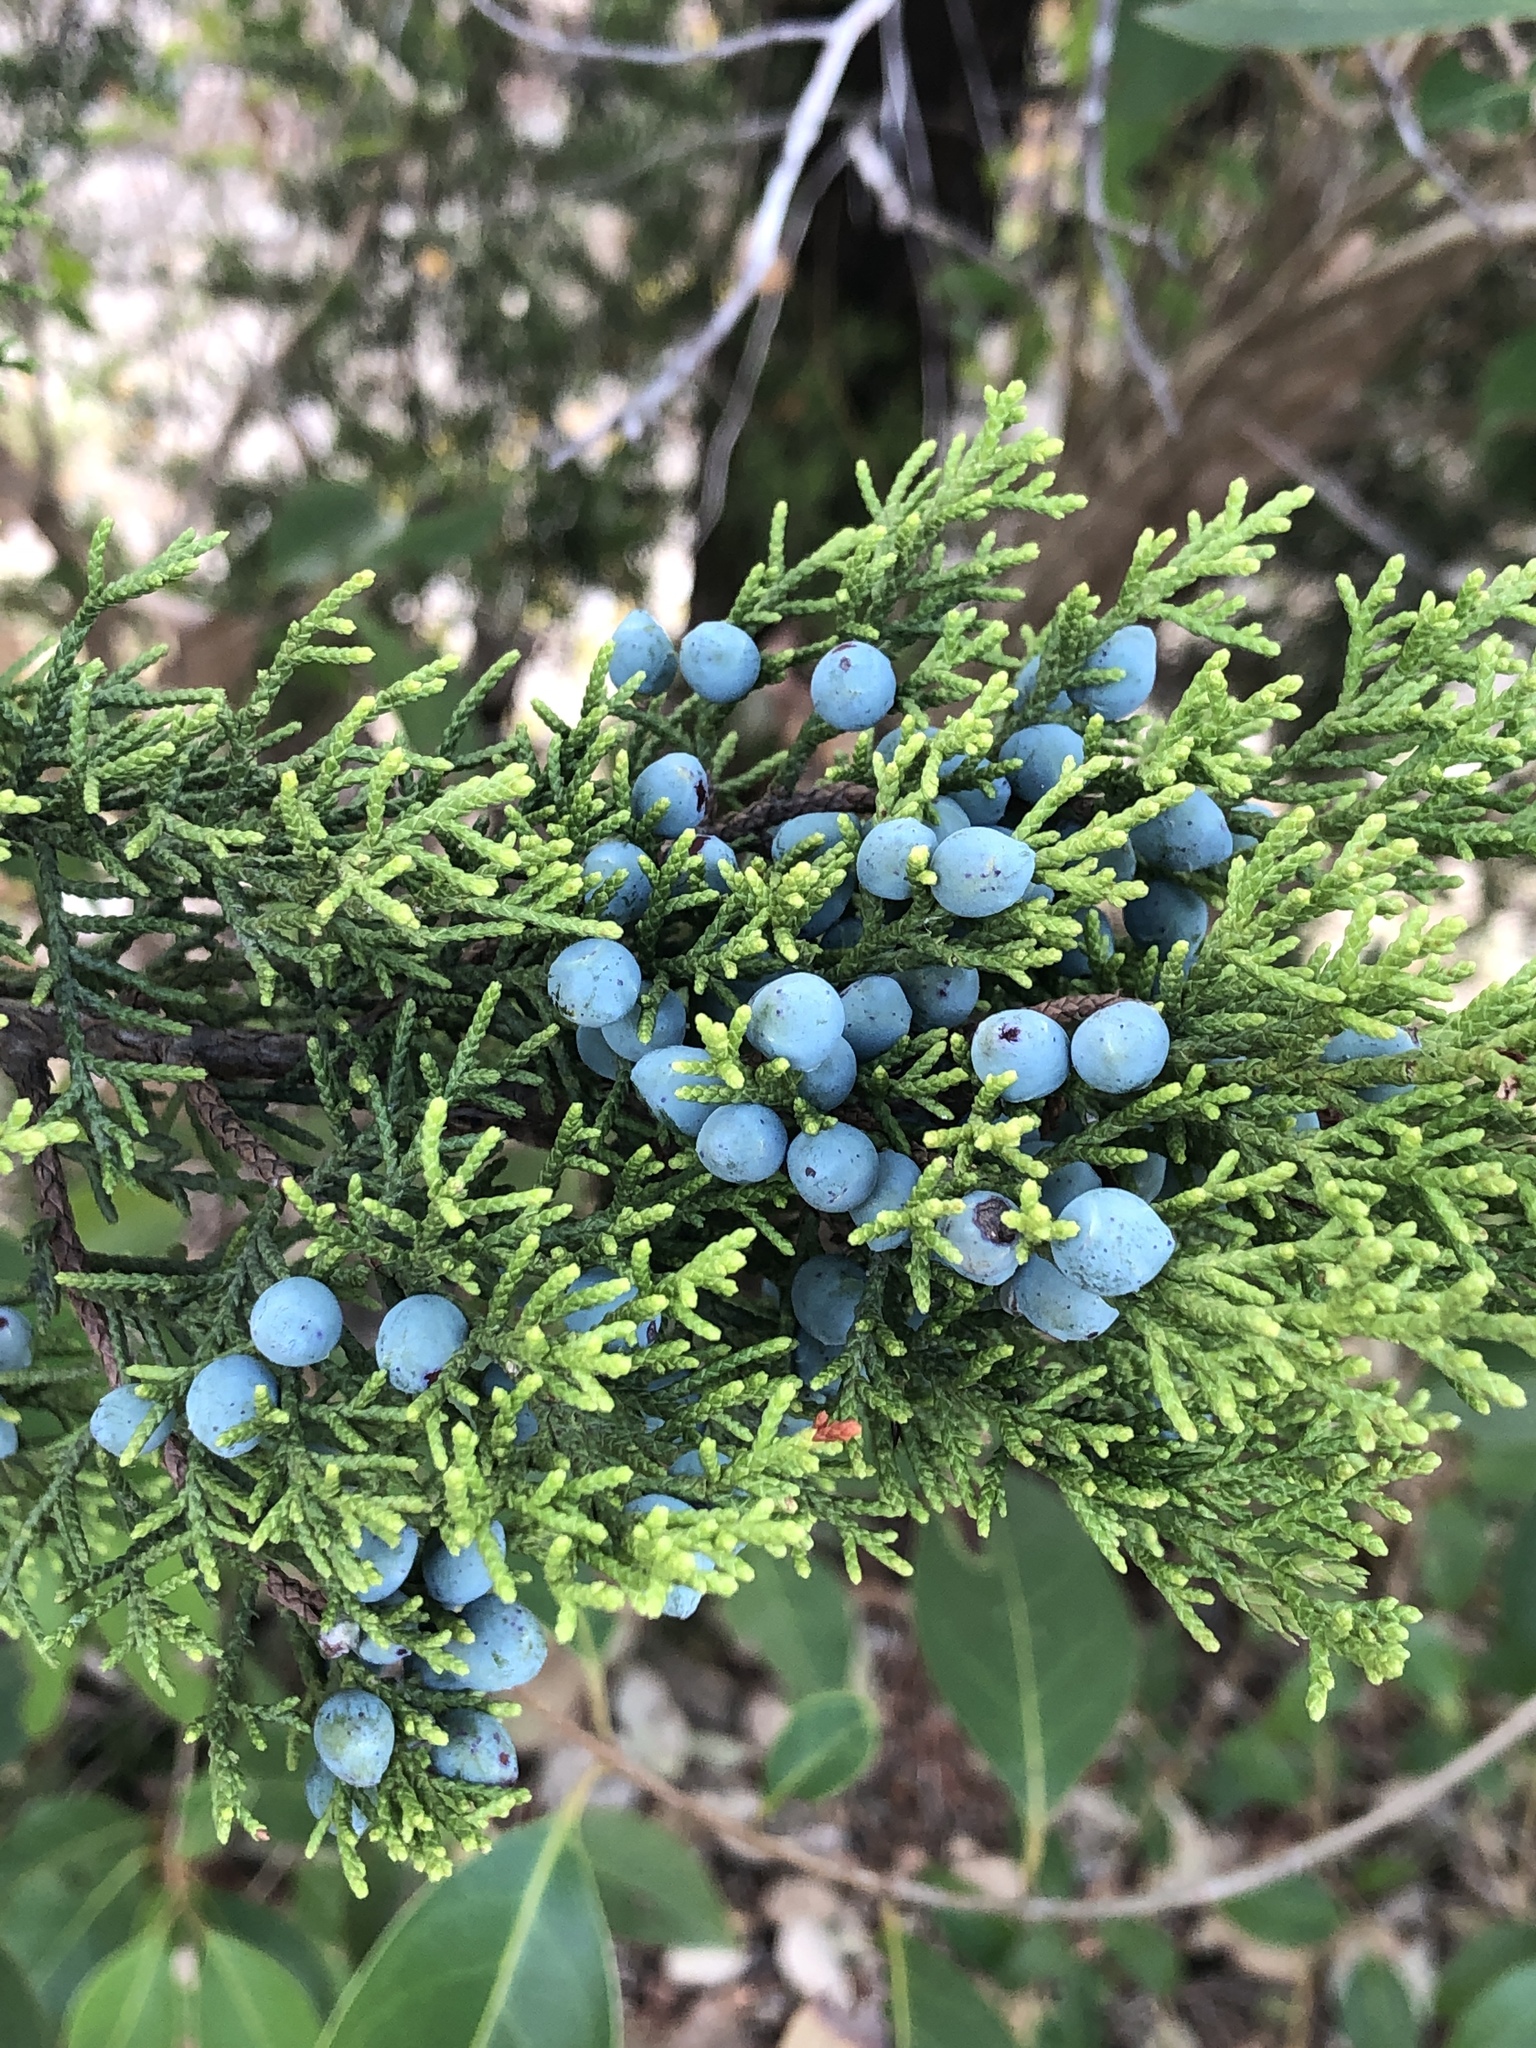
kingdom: Plantae
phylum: Tracheophyta
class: Pinopsida
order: Pinales
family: Cupressaceae
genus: Juniperus
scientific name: Juniperus ashei
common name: Mexican juniper
